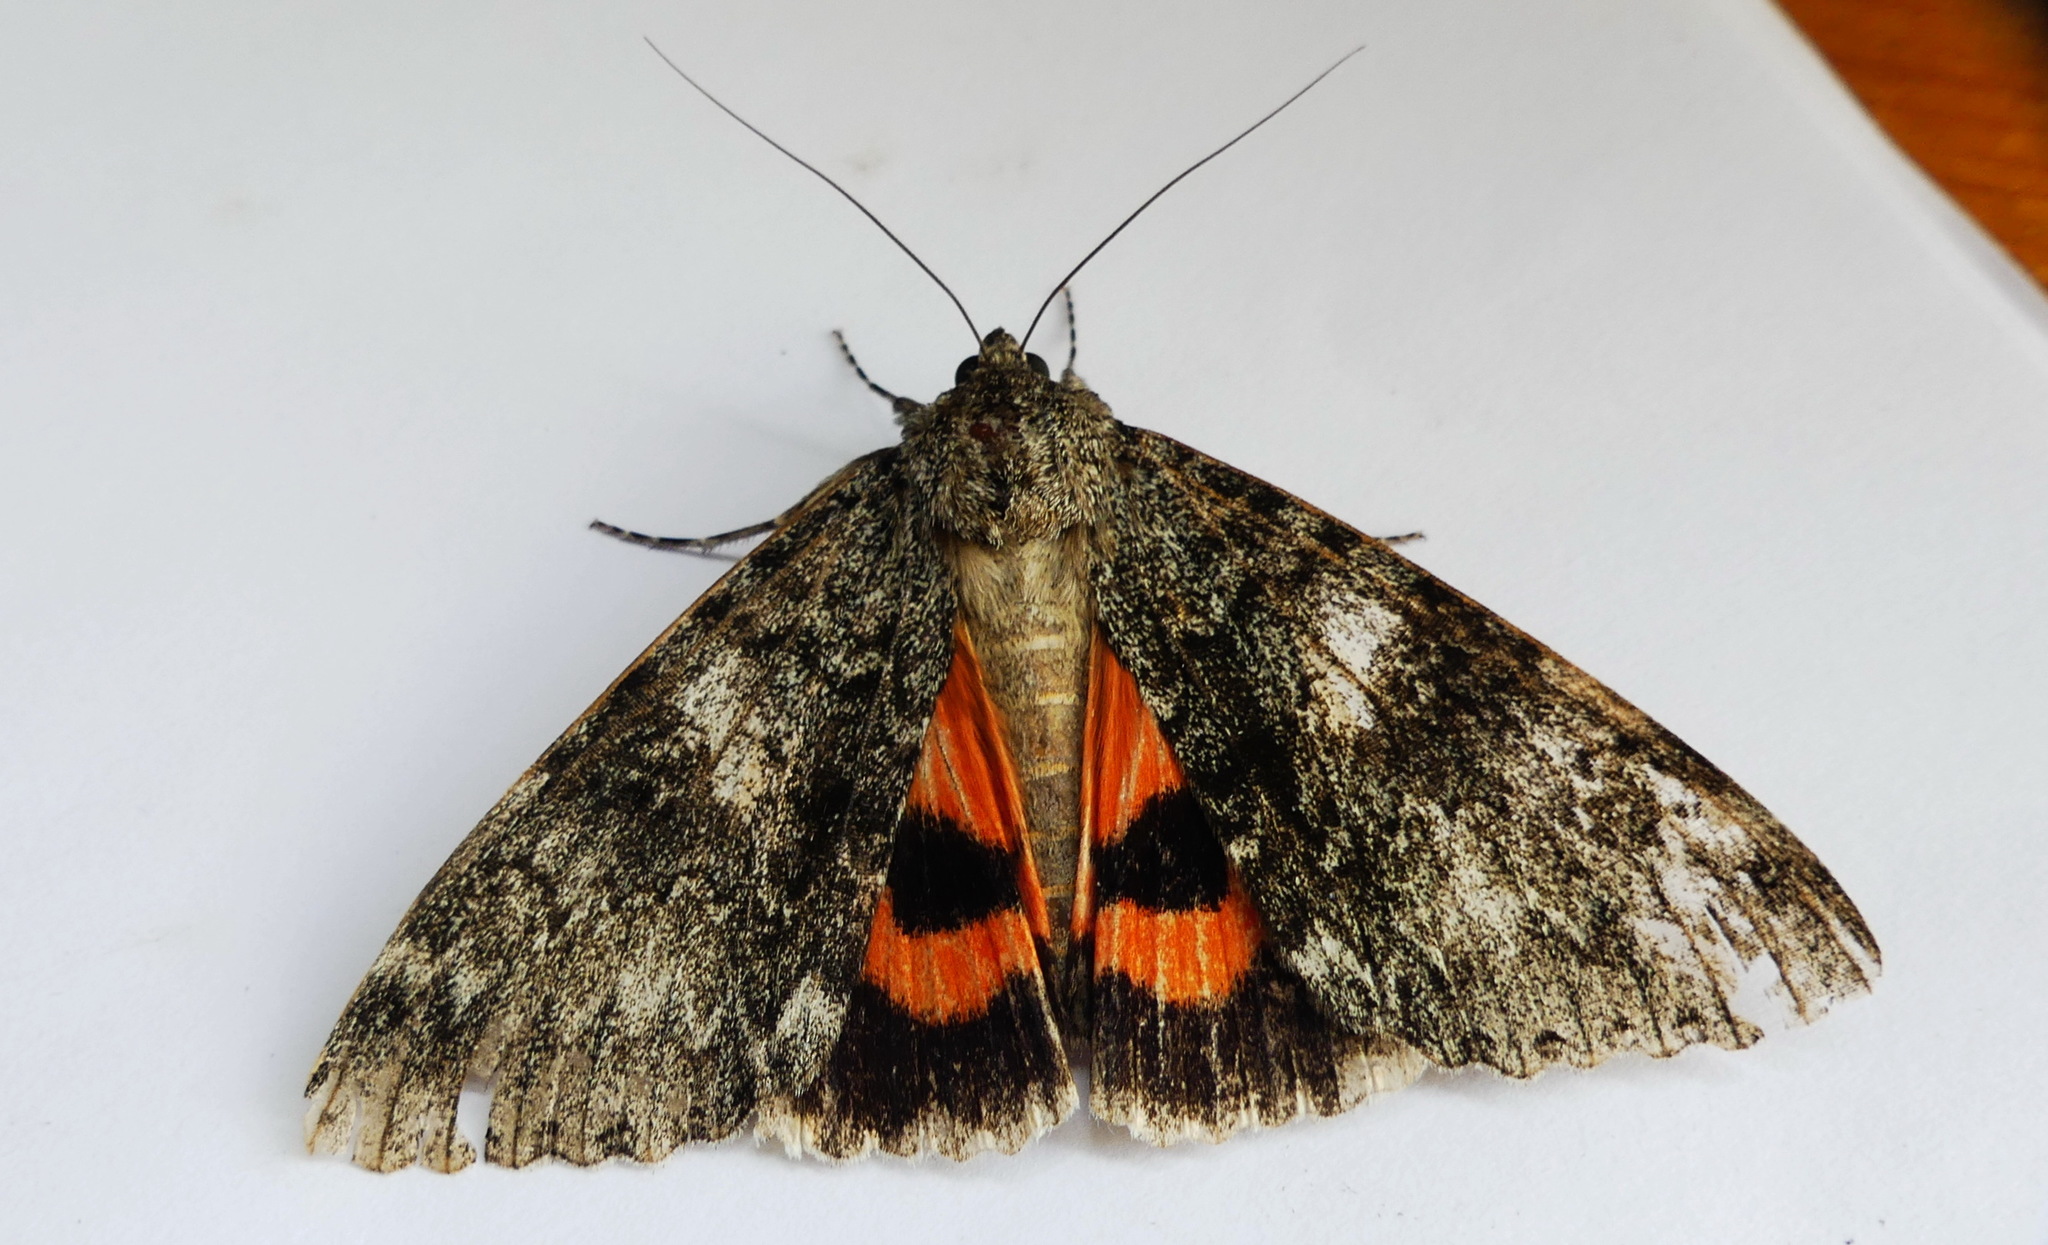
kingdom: Animalia
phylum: Arthropoda
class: Insecta
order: Lepidoptera
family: Erebidae
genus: Catocala
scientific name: Catocala unijuga
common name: Once-married underwing
